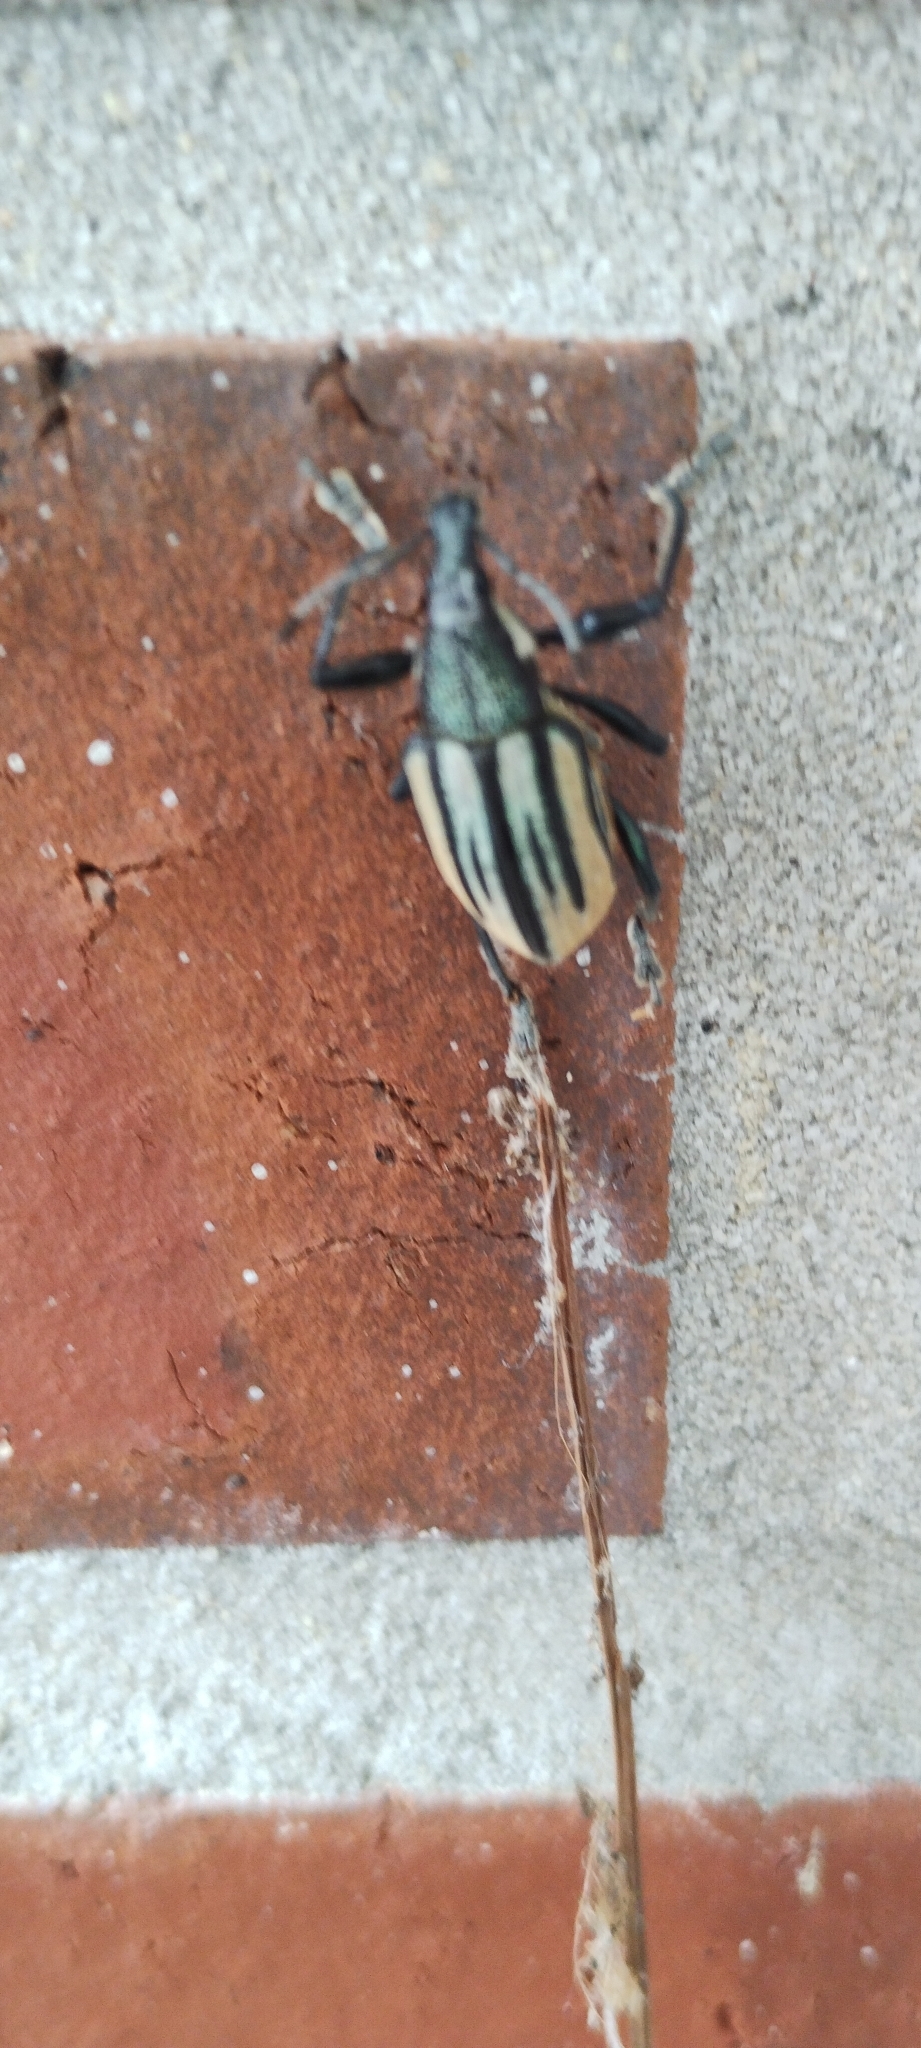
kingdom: Animalia
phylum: Arthropoda
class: Insecta
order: Coleoptera
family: Curculionidae
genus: Diaprepes
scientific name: Diaprepes abbreviatus
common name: Root weevil
